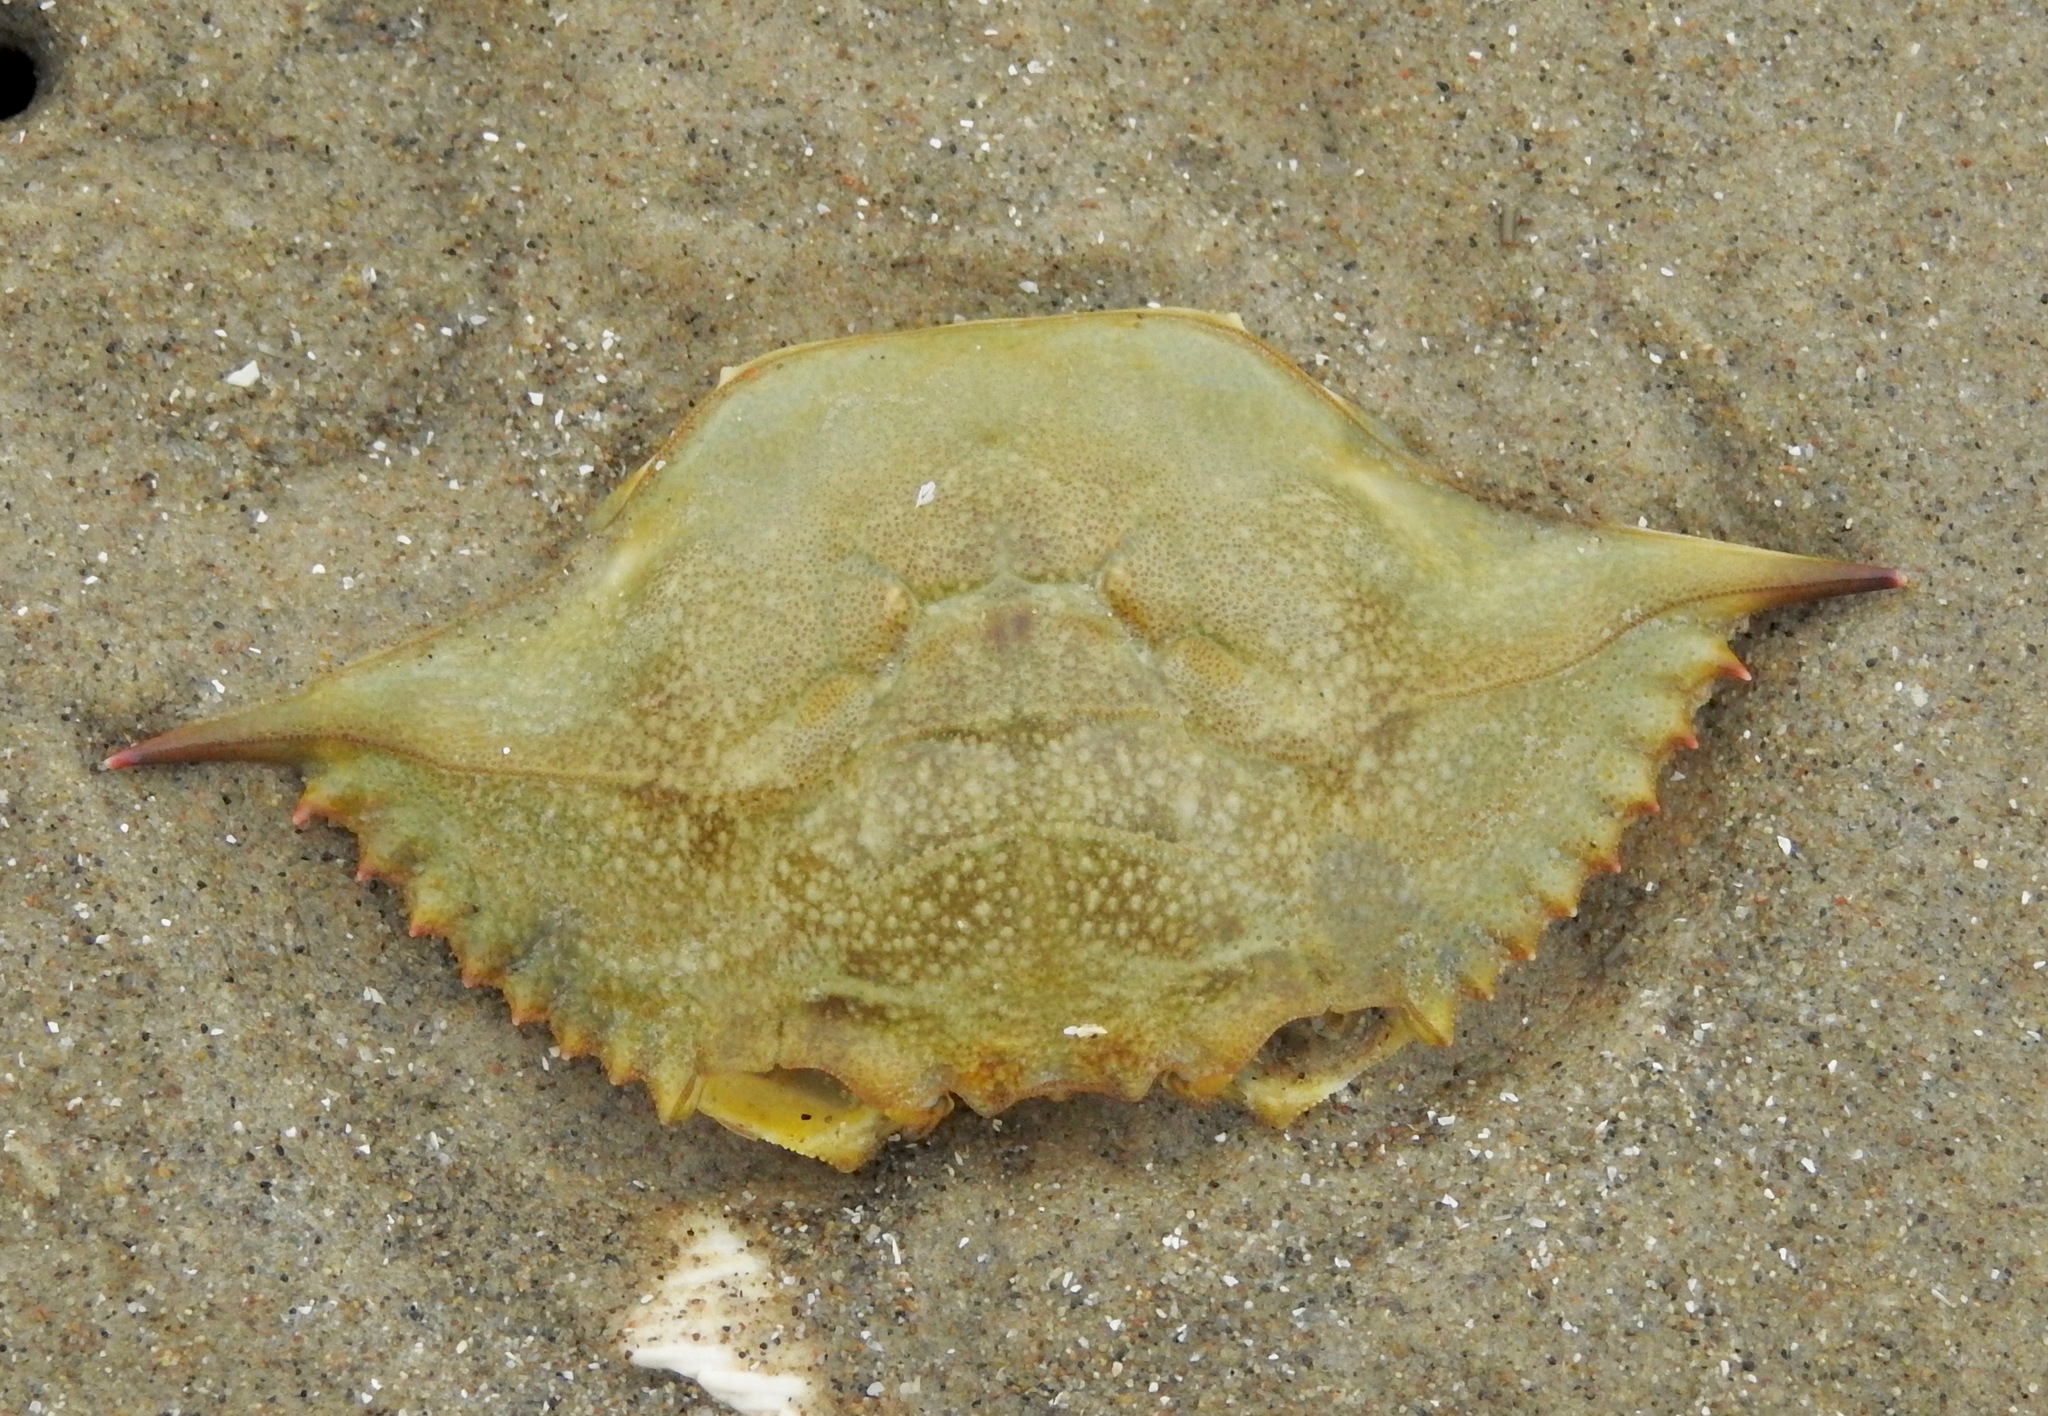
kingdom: Animalia
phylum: Arthropoda
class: Malacostraca
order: Decapoda
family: Portunidae
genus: Callinectes
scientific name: Callinectes sapidus
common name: Blue crab
